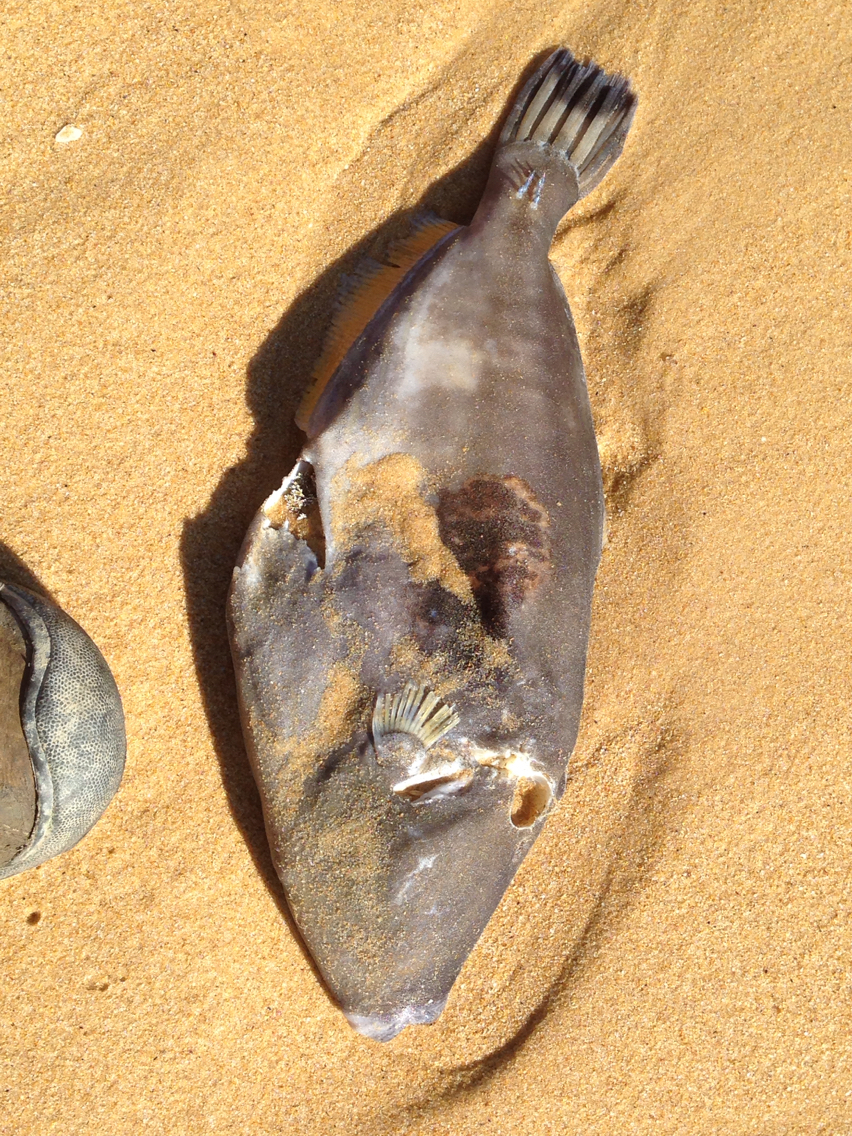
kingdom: Animalia
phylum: Chordata
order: Tetraodontiformes
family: Monacanthidae
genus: Meuschenia
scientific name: Meuschenia freycineti
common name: Freycinet's leatherjacket
